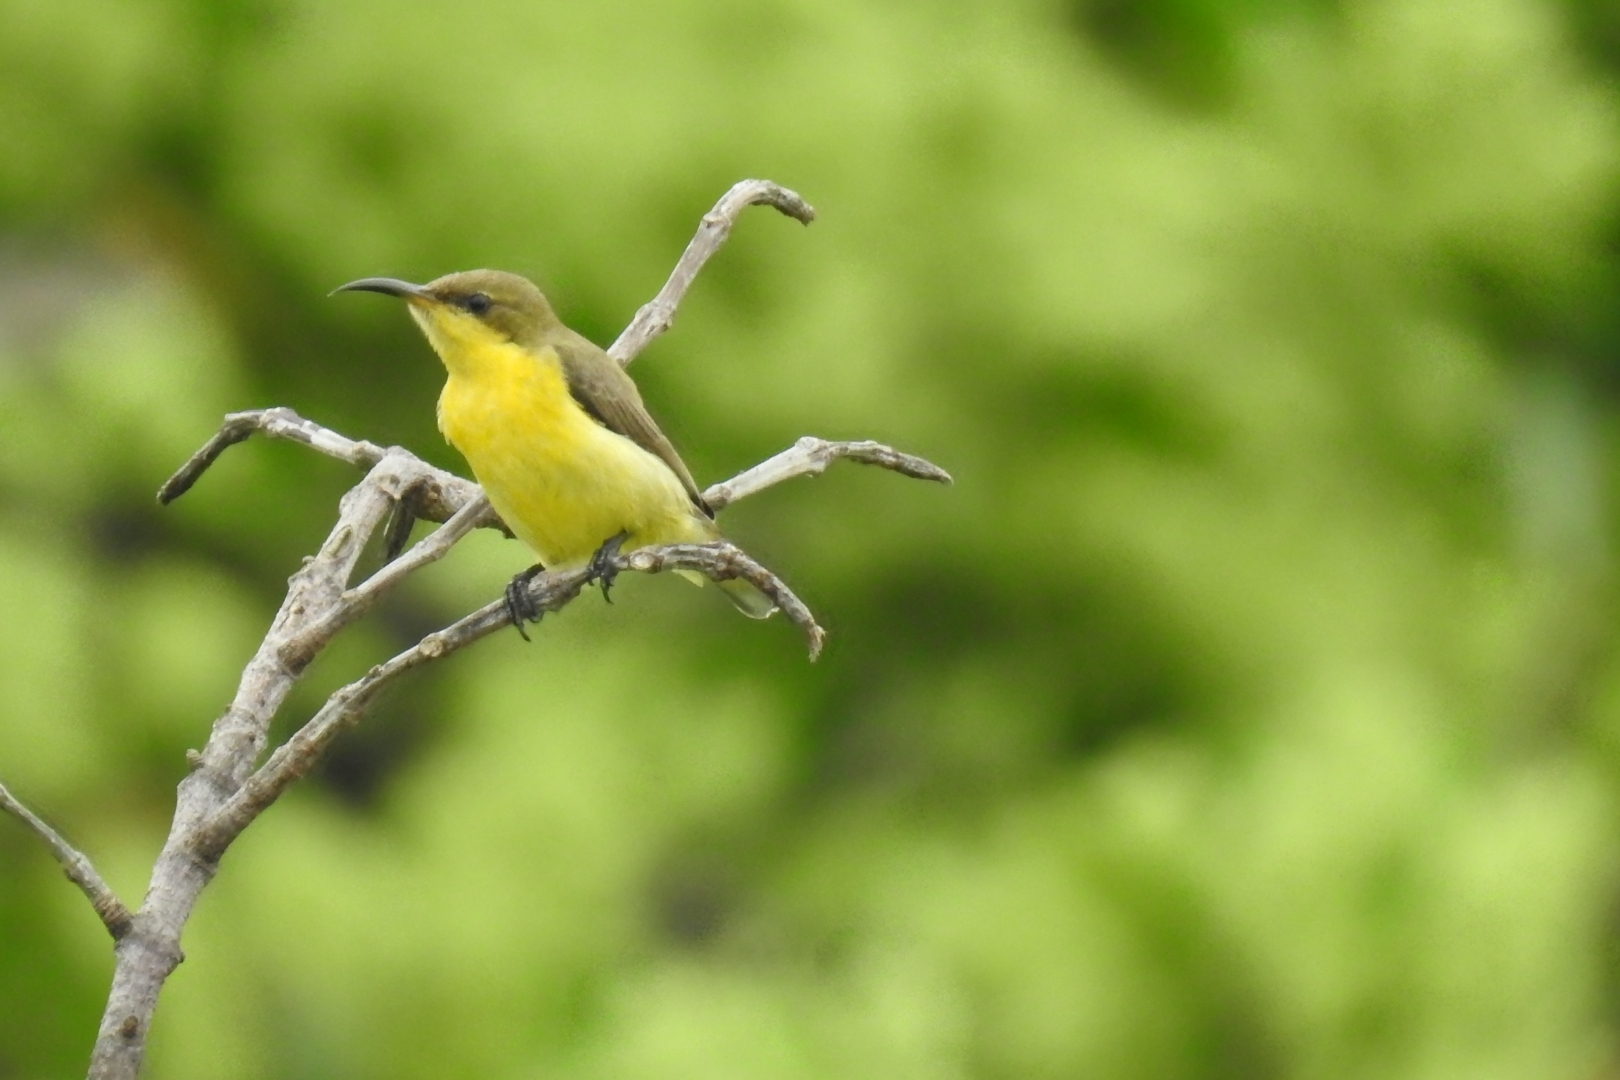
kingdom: Animalia
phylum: Chordata
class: Aves
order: Passeriformes
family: Nectariniidae
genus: Cinnyris
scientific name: Cinnyris asiaticus
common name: Purple sunbird
